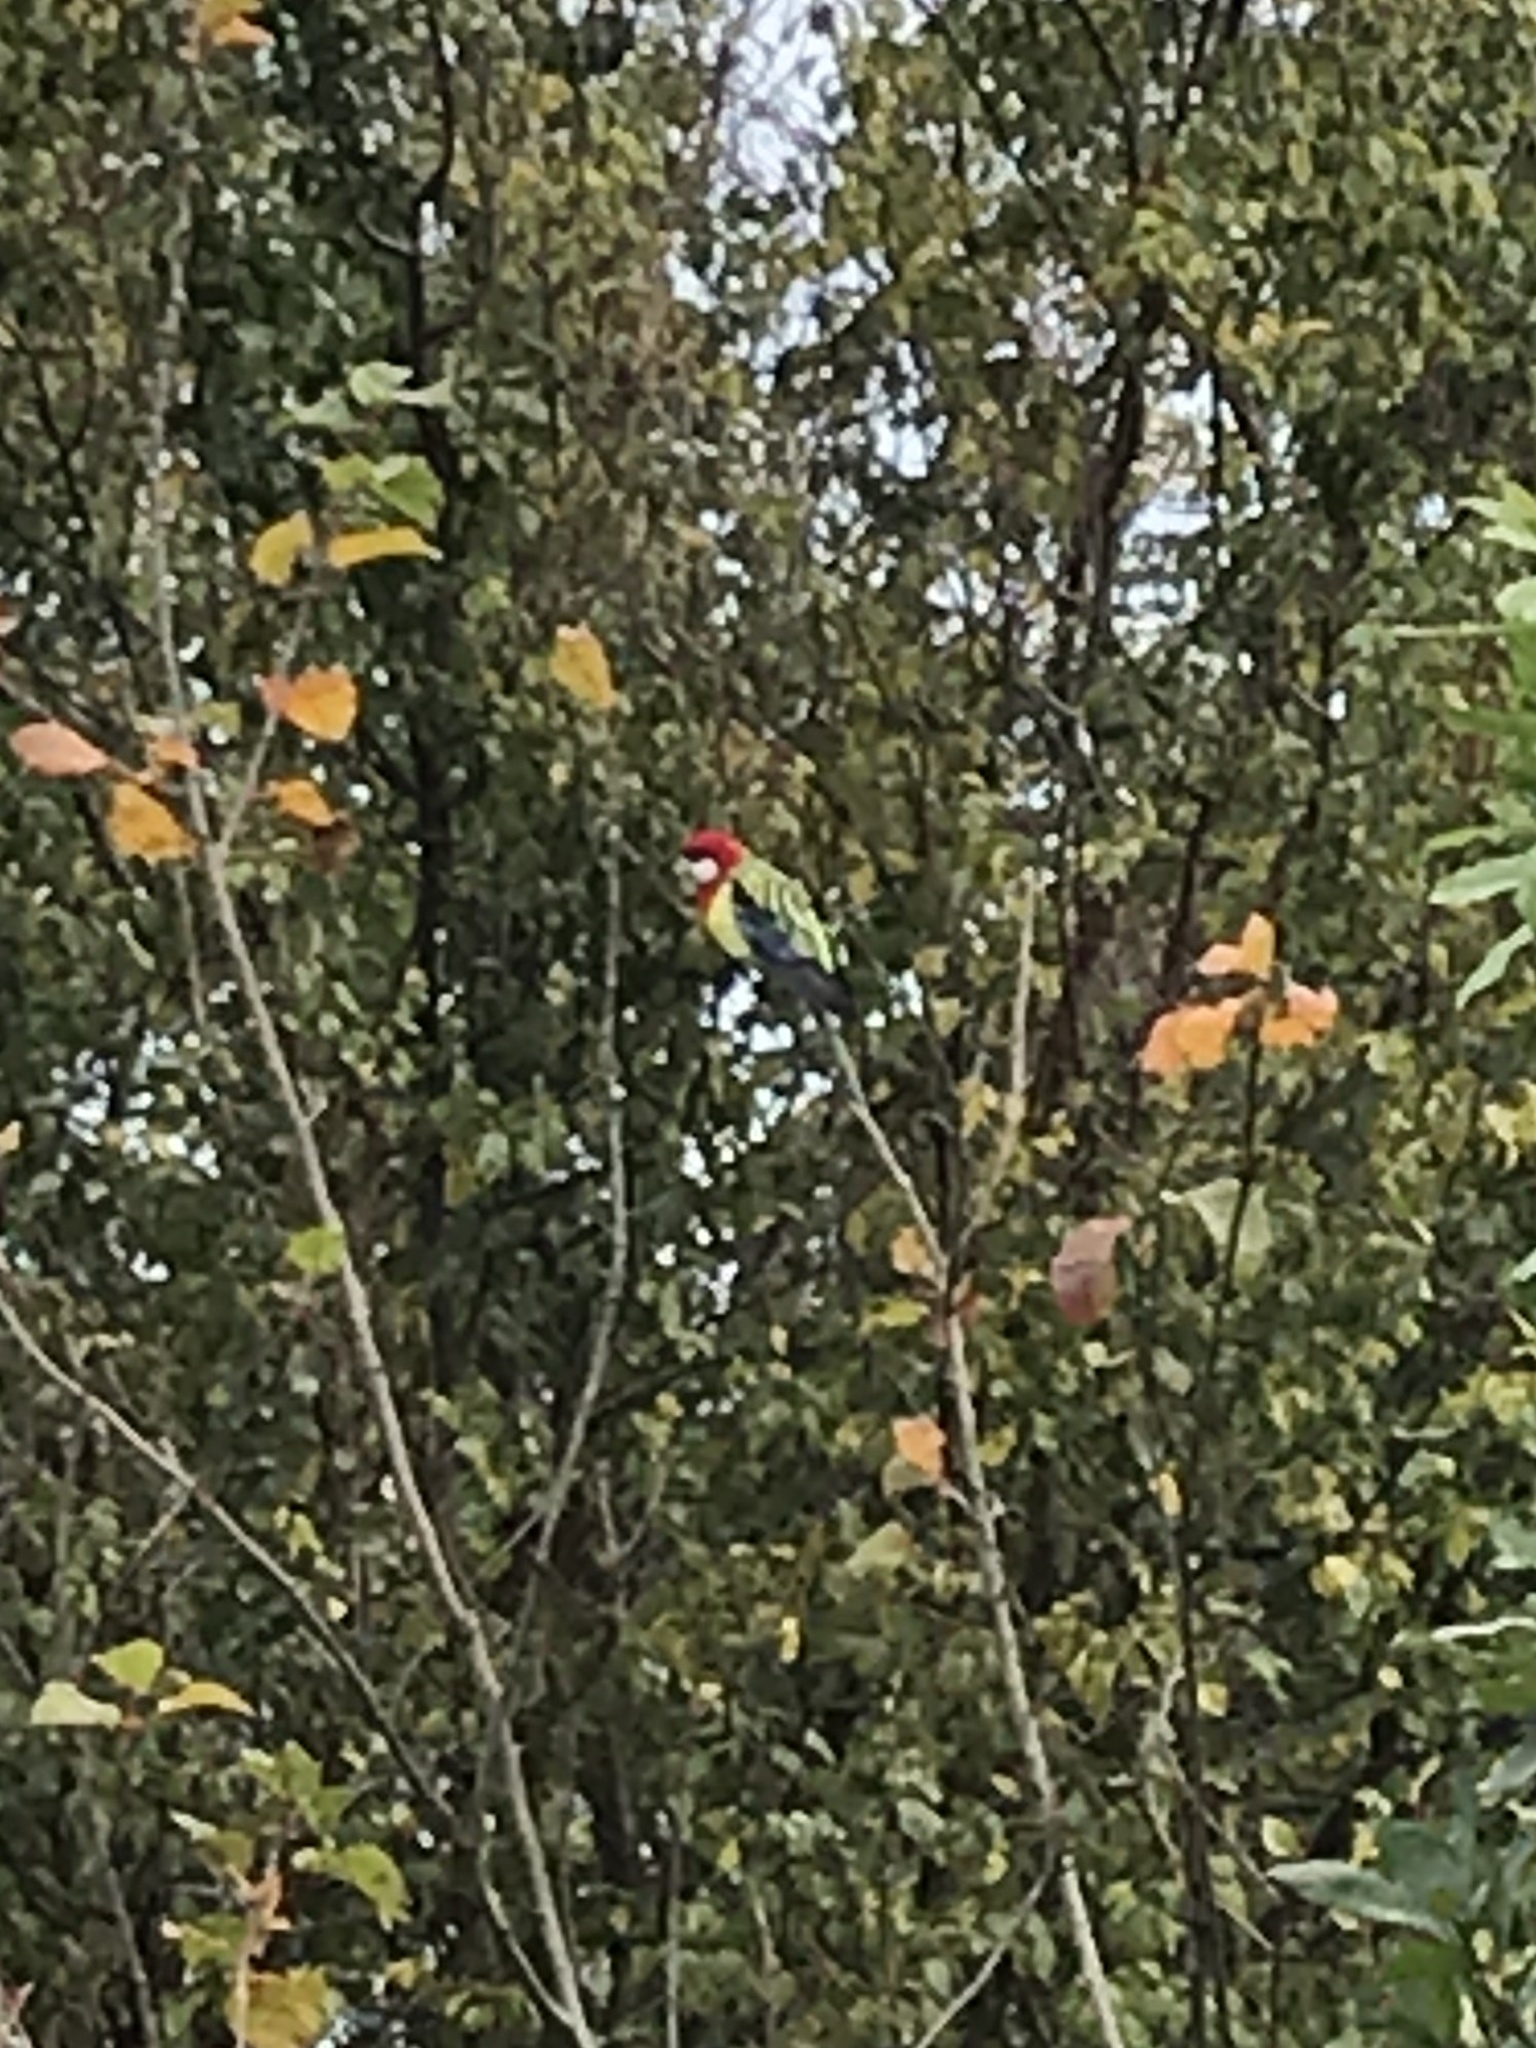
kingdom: Animalia
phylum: Chordata
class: Aves
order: Psittaciformes
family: Psittacidae
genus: Platycercus
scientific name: Platycercus eximius
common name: Eastern rosella
